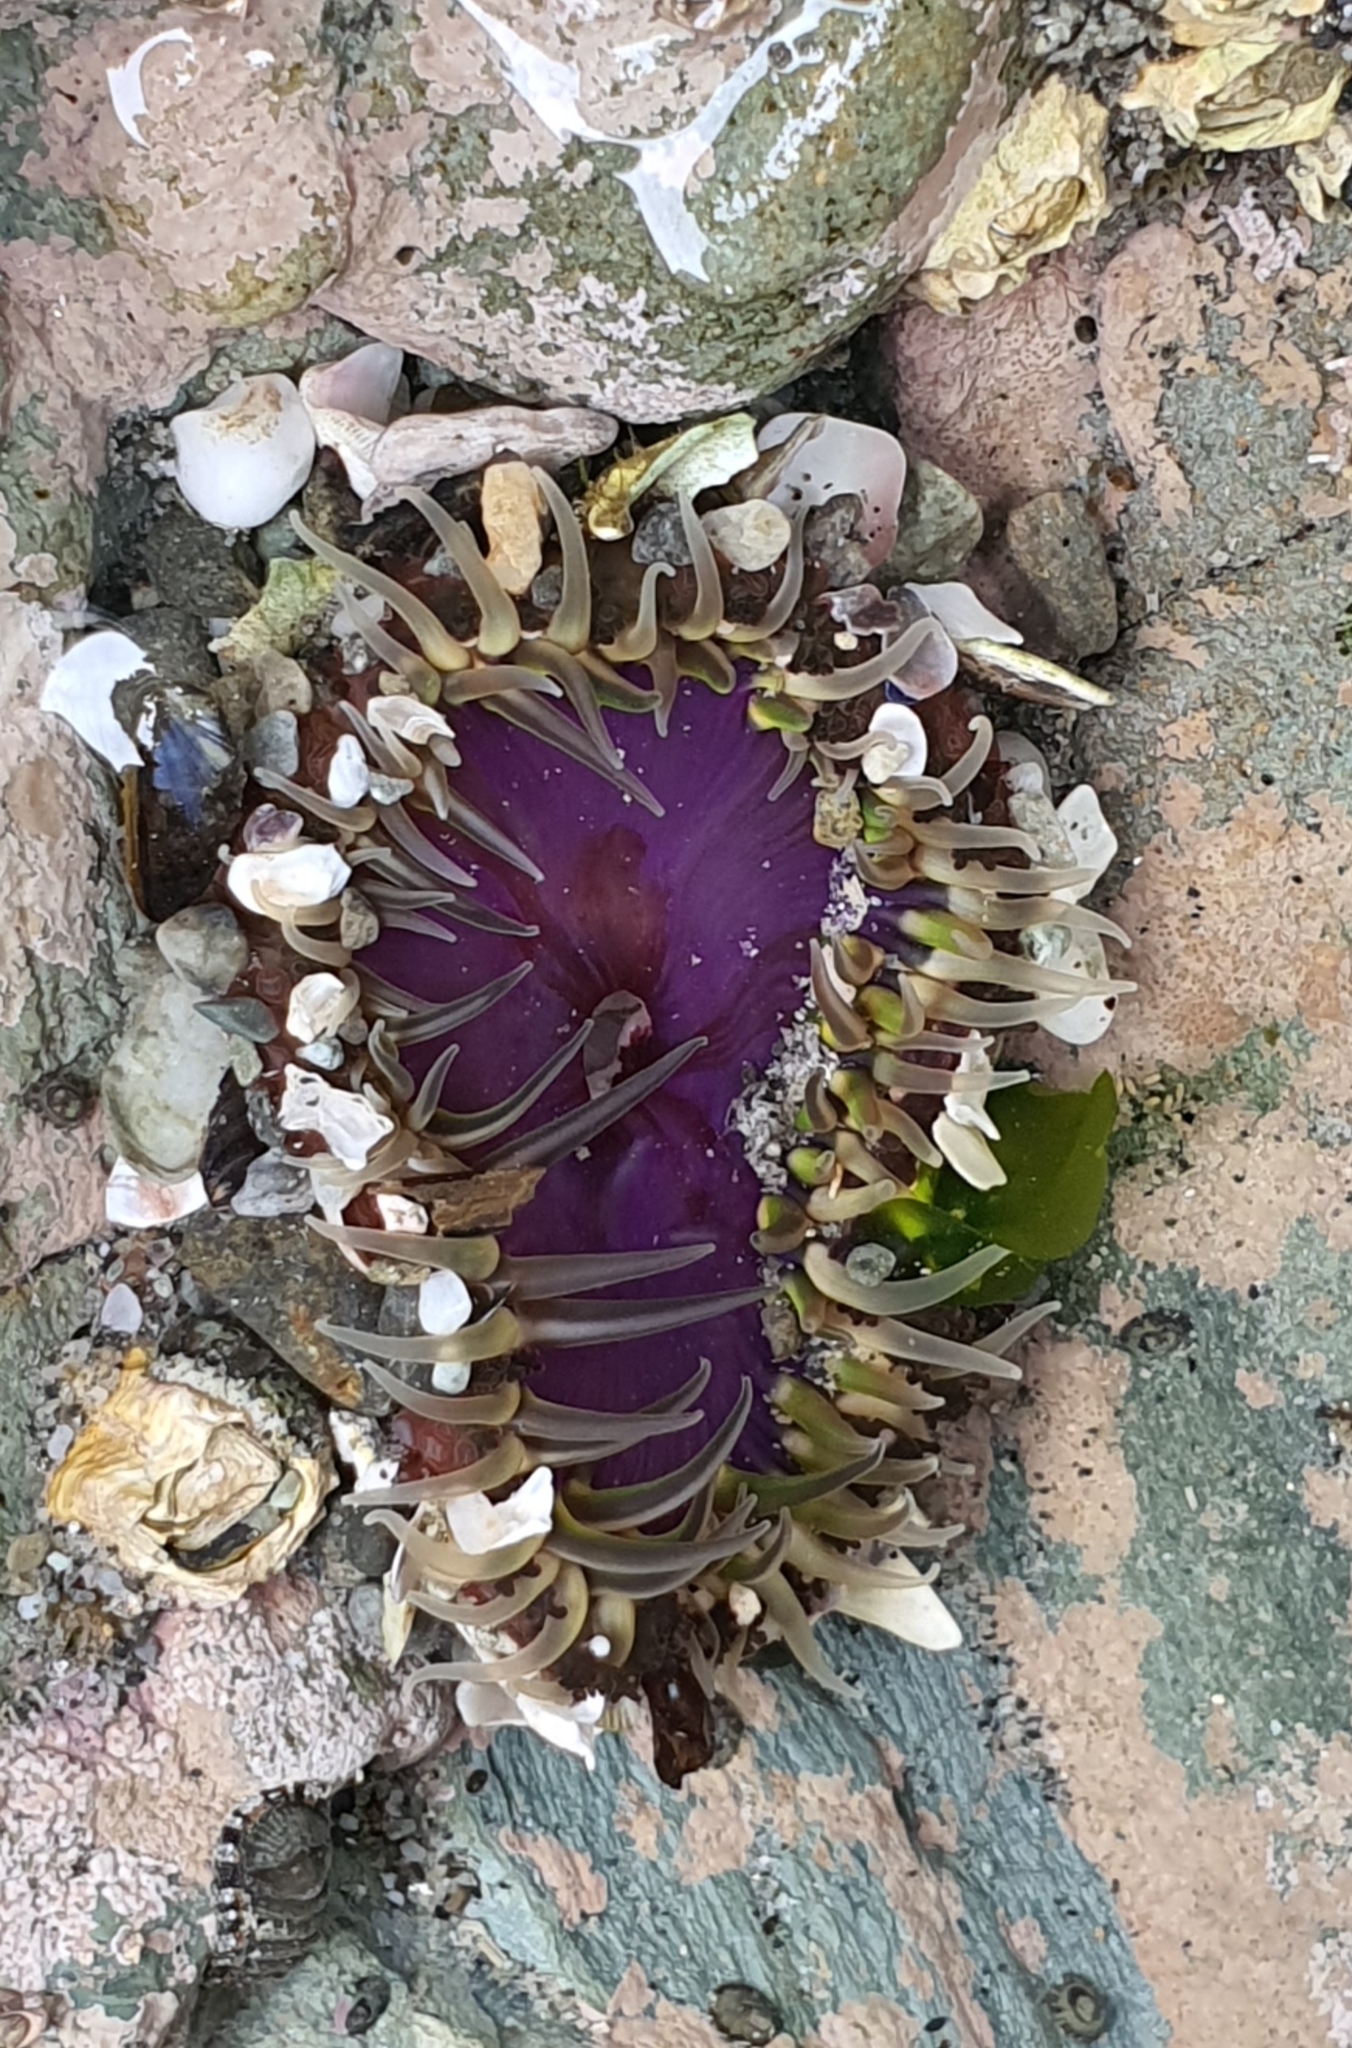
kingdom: Animalia
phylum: Cnidaria
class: Anthozoa
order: Actiniaria
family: Actiniidae
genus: Oulactis
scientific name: Oulactis magna
